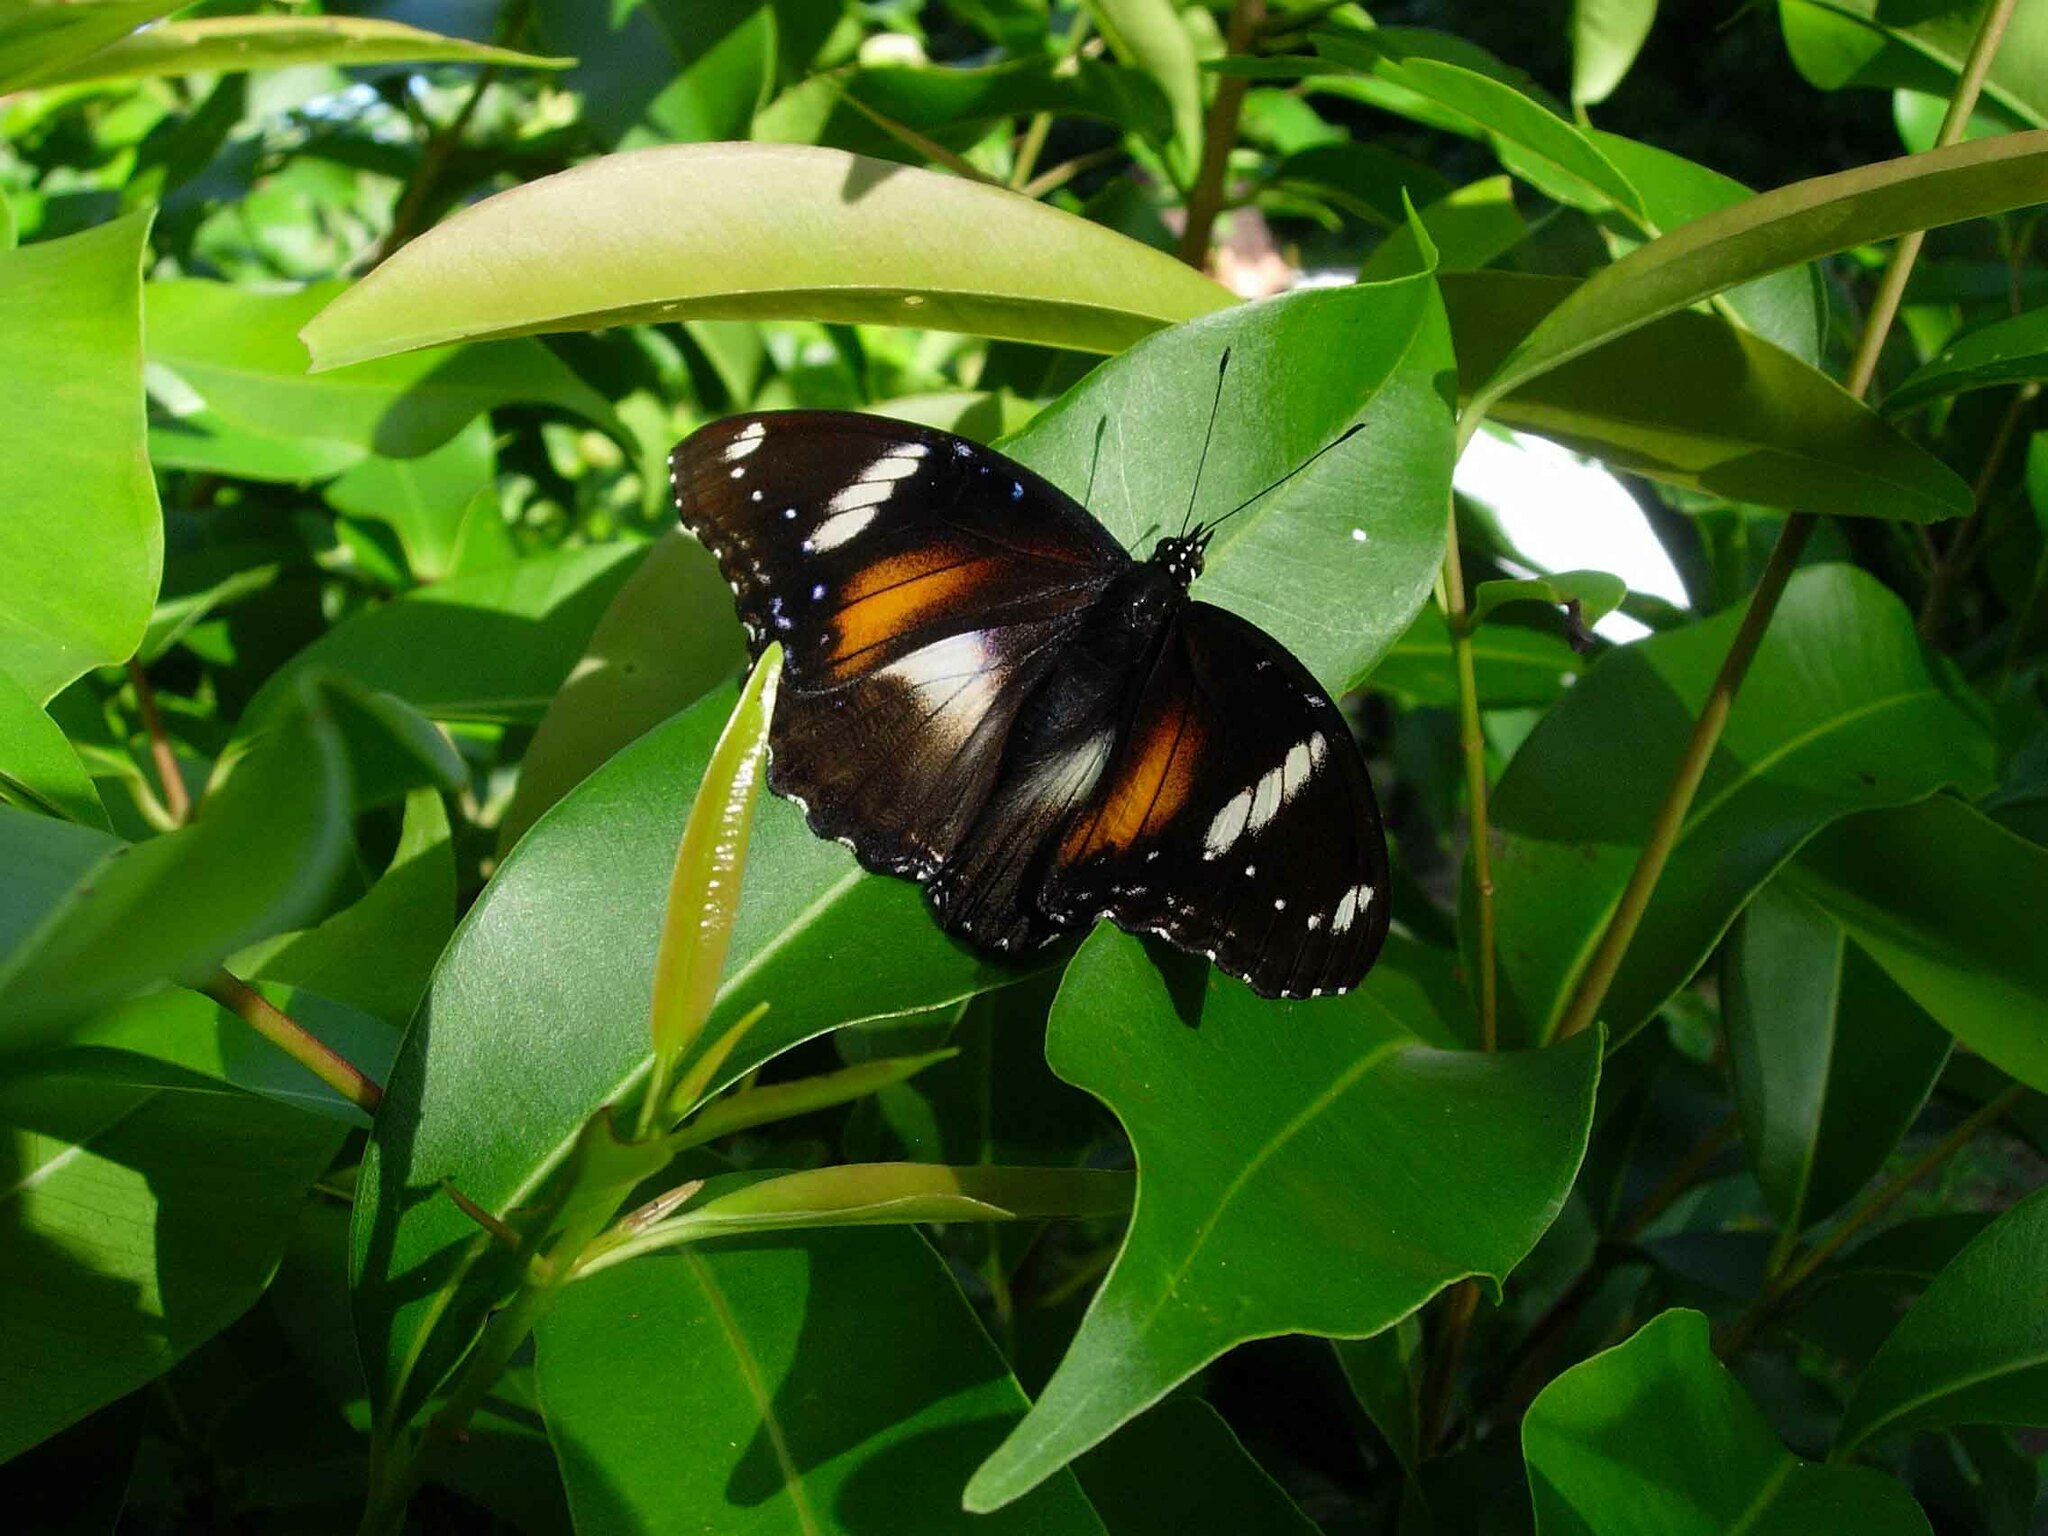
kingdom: Animalia
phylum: Arthropoda
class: Insecta
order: Lepidoptera
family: Nymphalidae
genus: Hypolimnas
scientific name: Hypolimnas bolina
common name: Great eggfly
